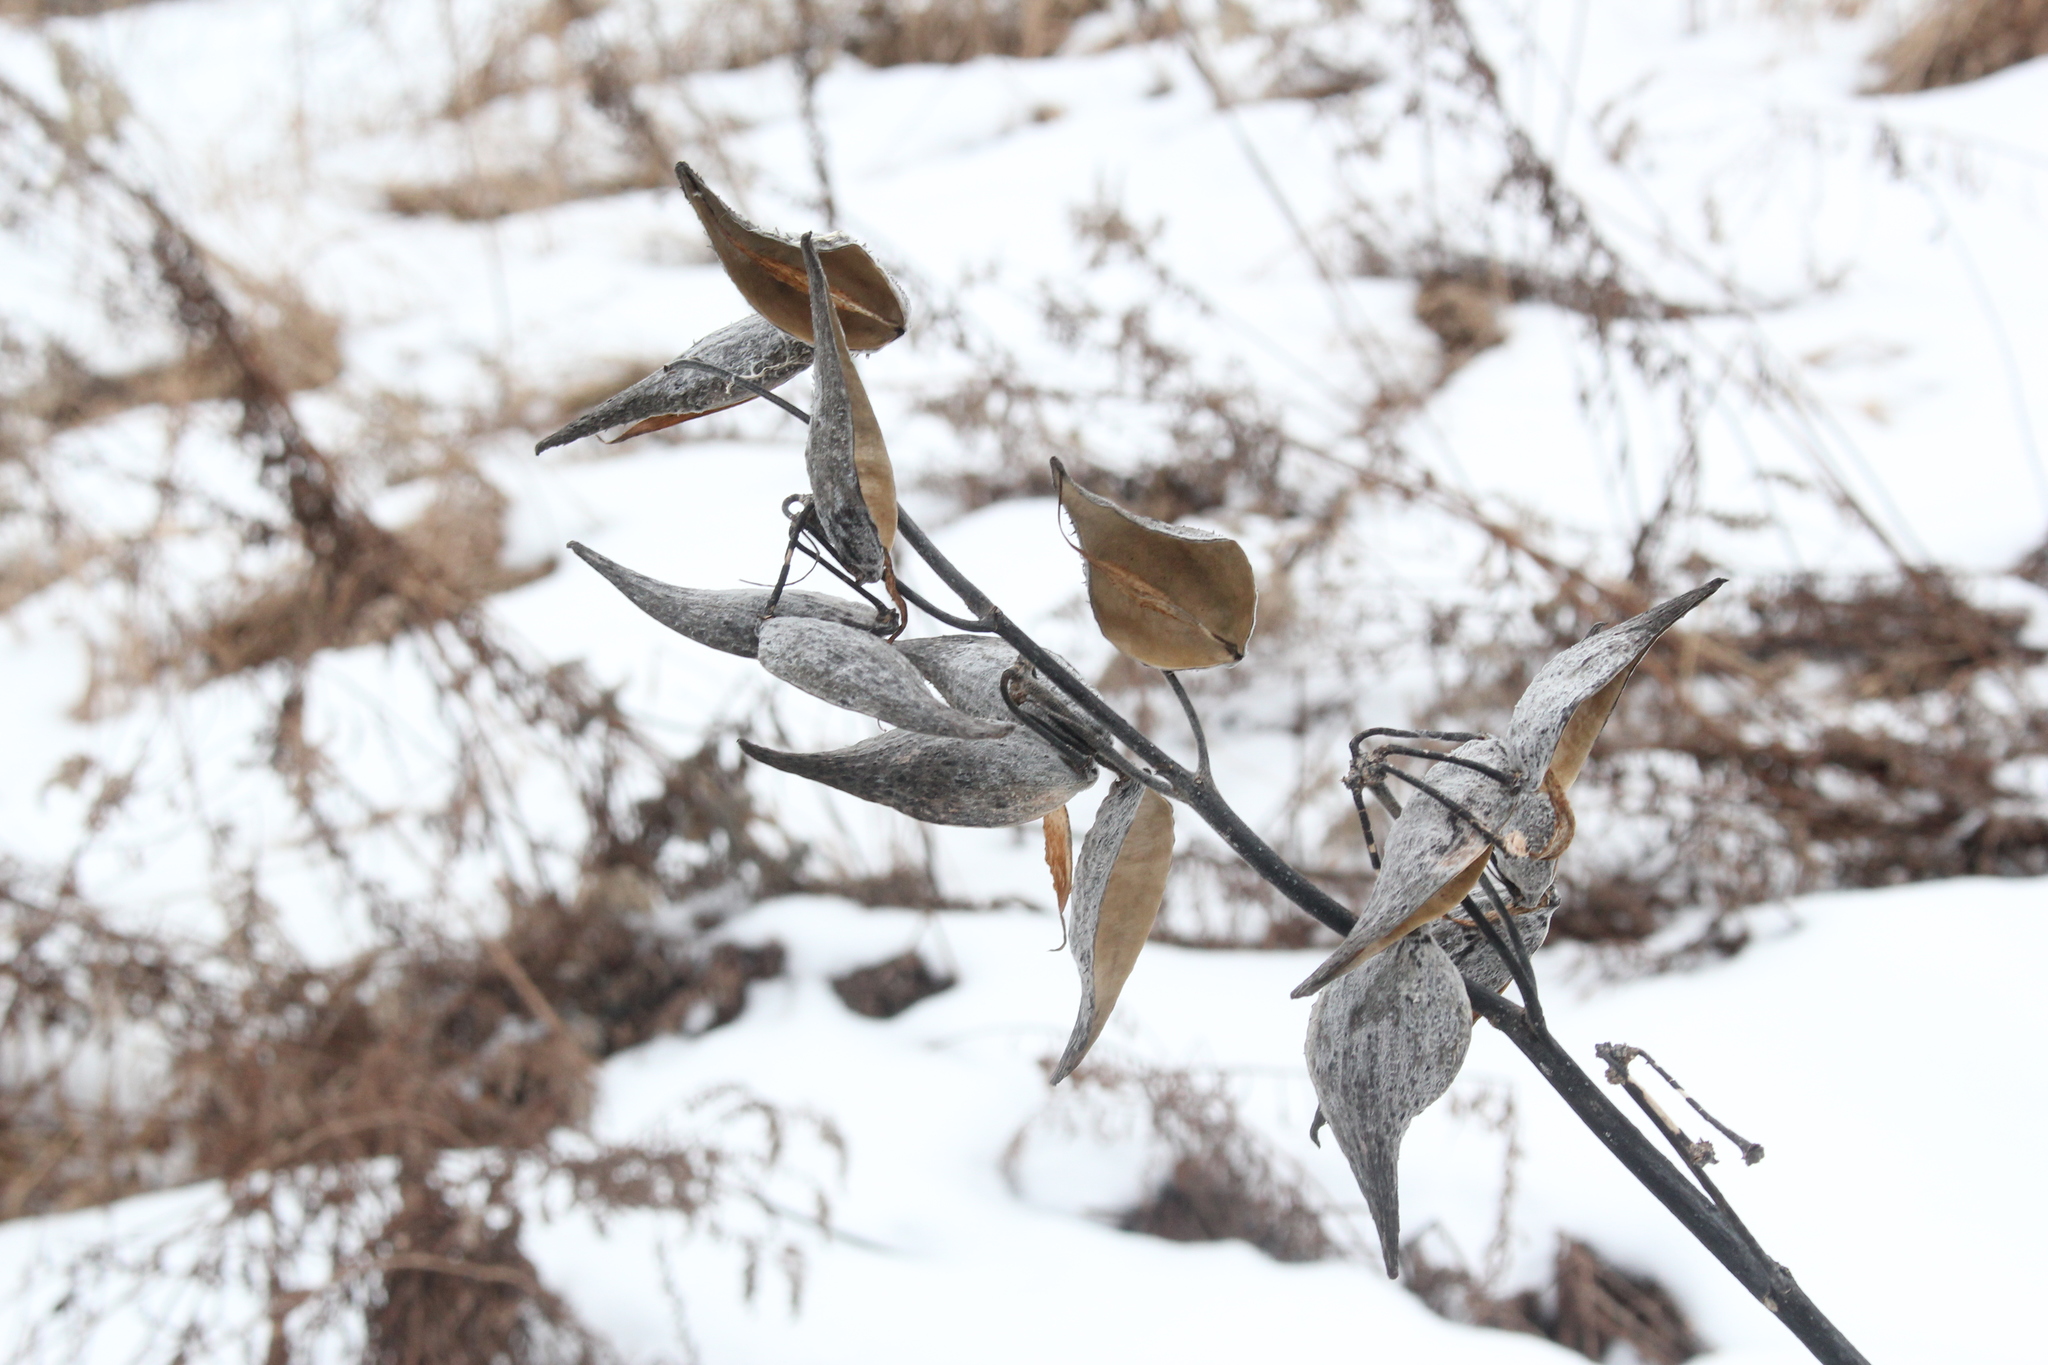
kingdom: Plantae
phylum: Tracheophyta
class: Magnoliopsida
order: Gentianales
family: Apocynaceae
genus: Asclepias
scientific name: Asclepias syriaca
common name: Common milkweed
